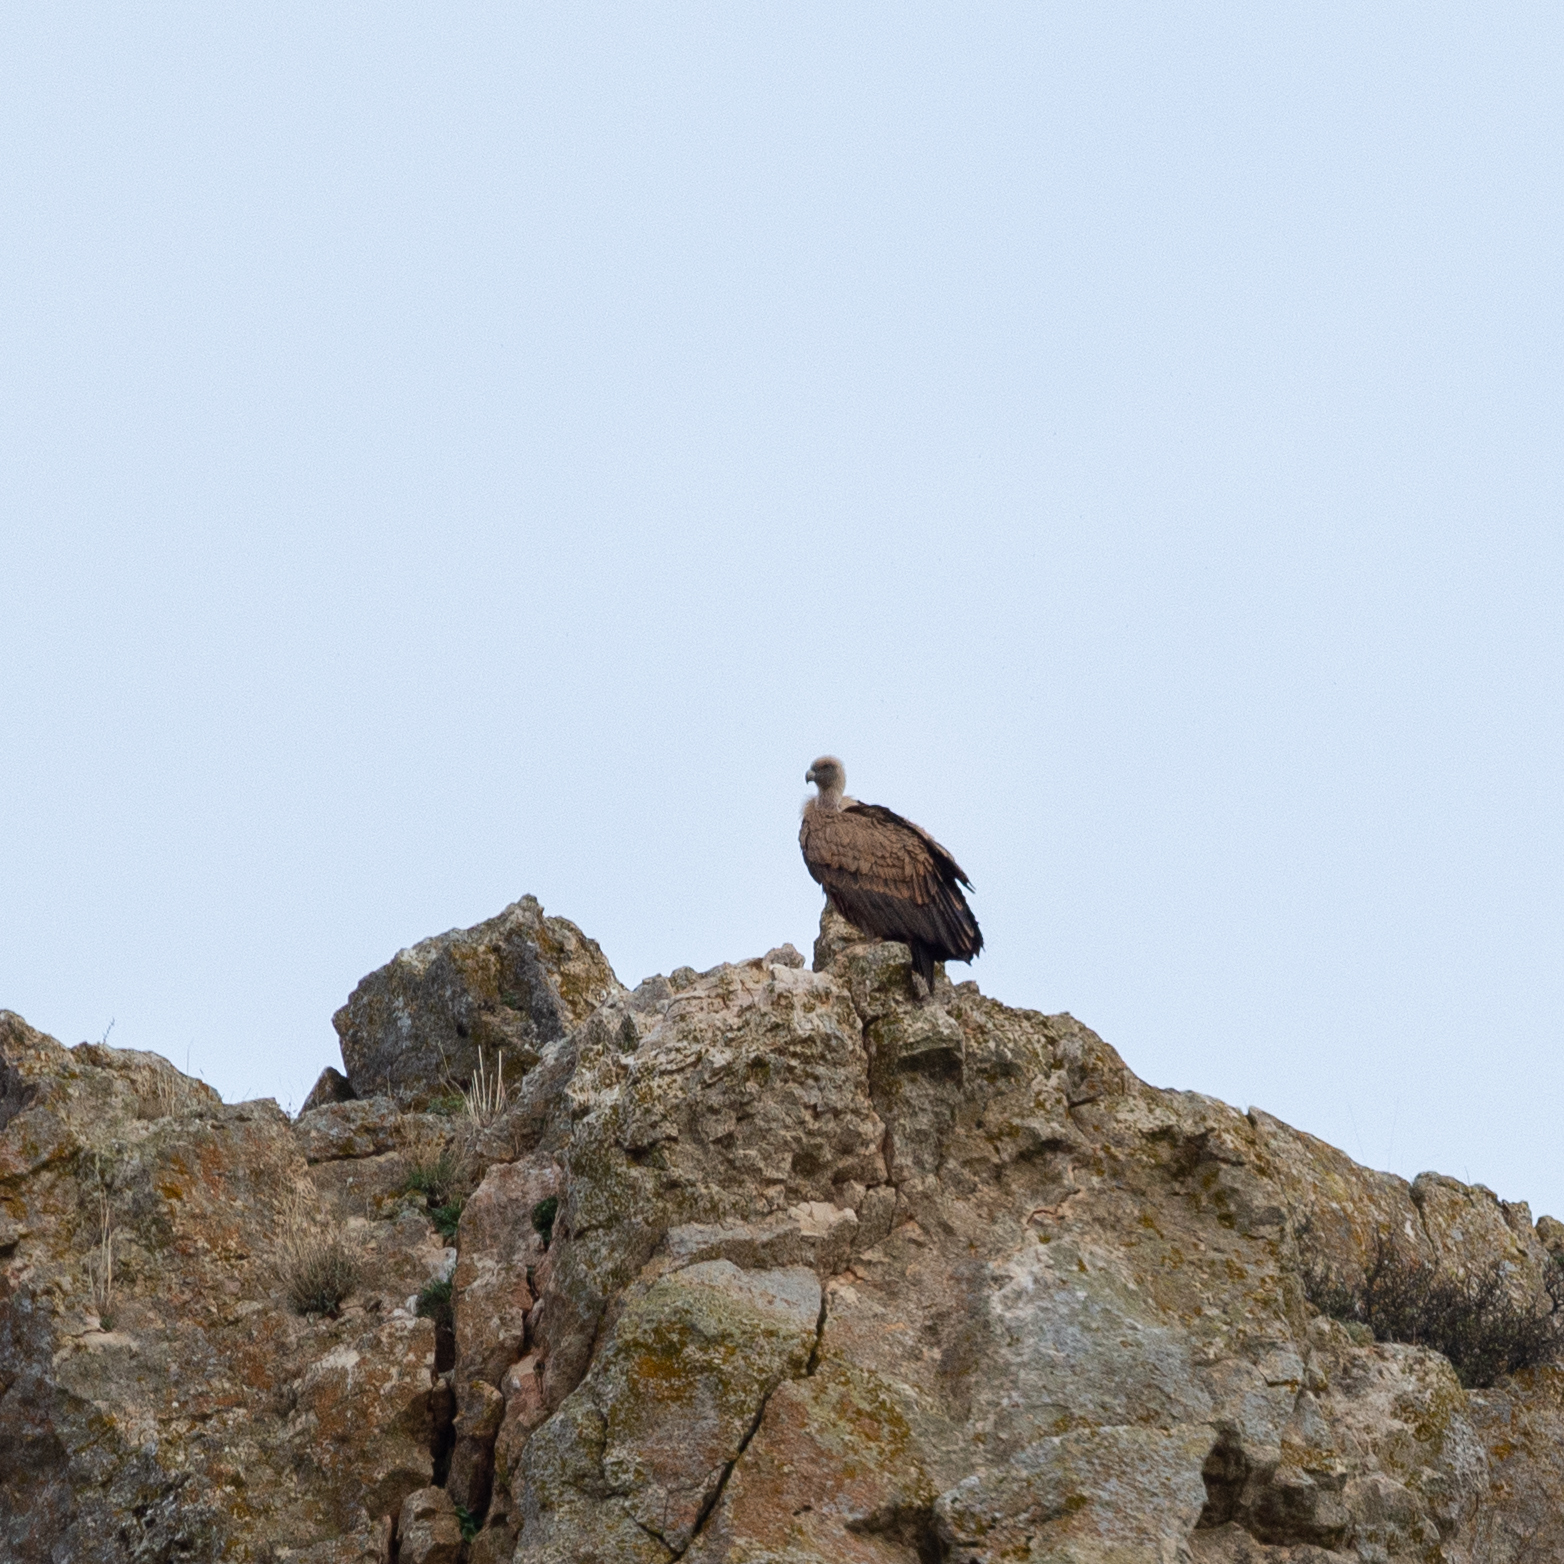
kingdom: Animalia
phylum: Chordata
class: Aves
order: Accipitriformes
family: Accipitridae
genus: Gyps
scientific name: Gyps fulvus
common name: Griffon vulture
